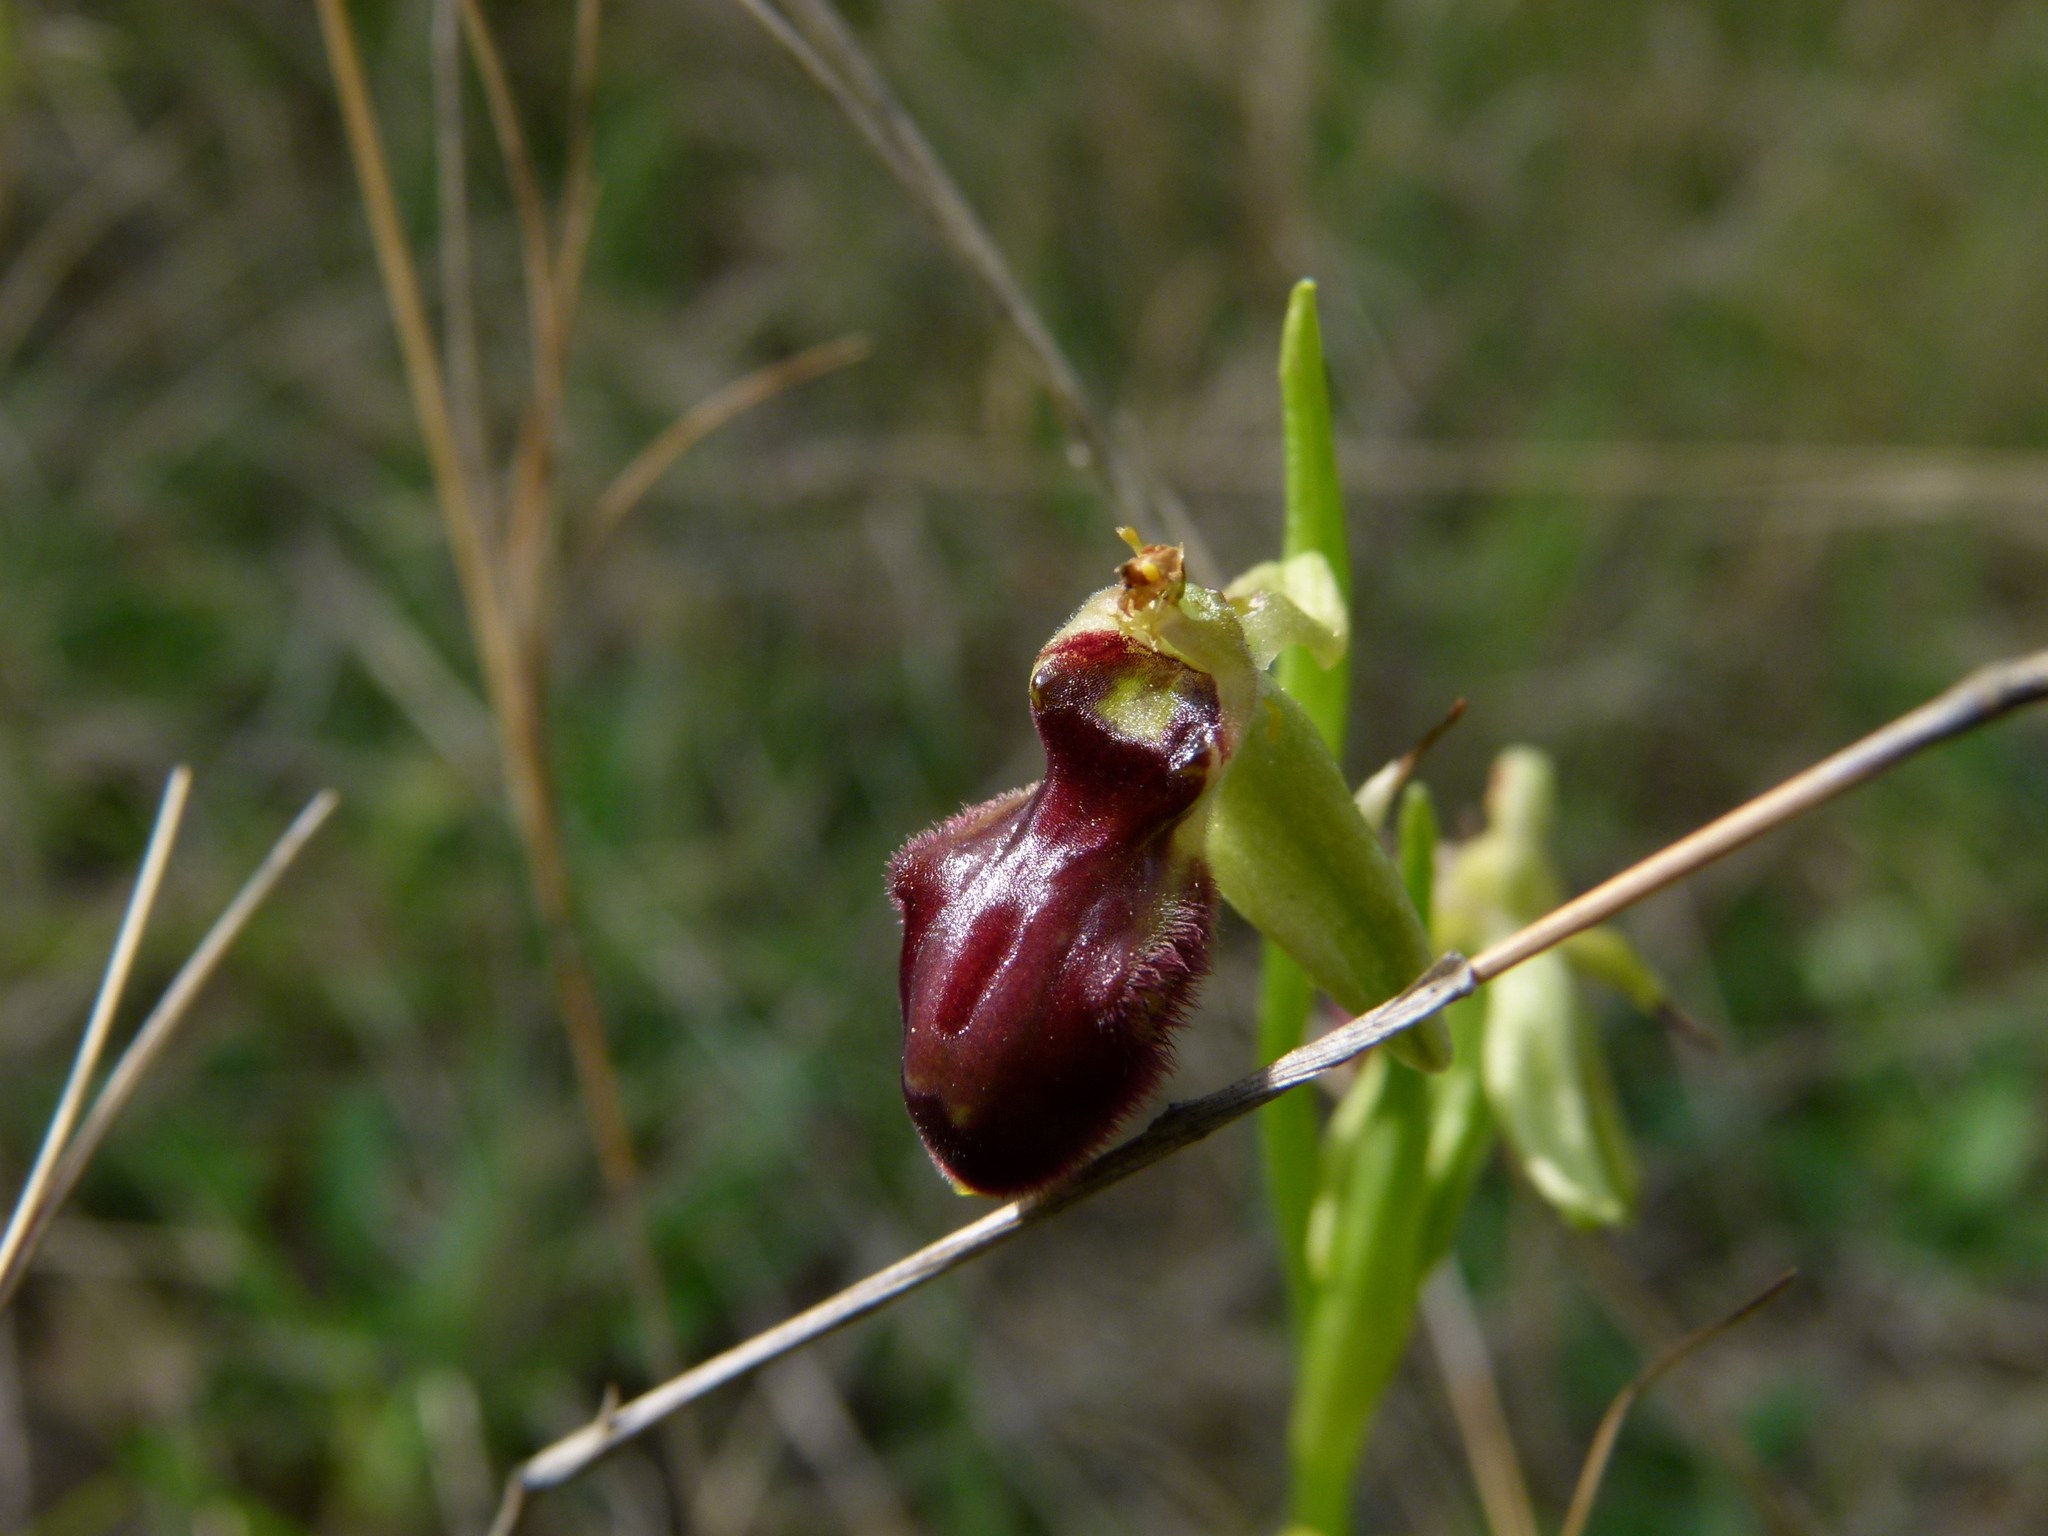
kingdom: Plantae
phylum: Tracheophyta
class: Liliopsida
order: Asparagales
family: Orchidaceae
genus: Ophrys
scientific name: Ophrys sphegodes
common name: Early spider-orchid
